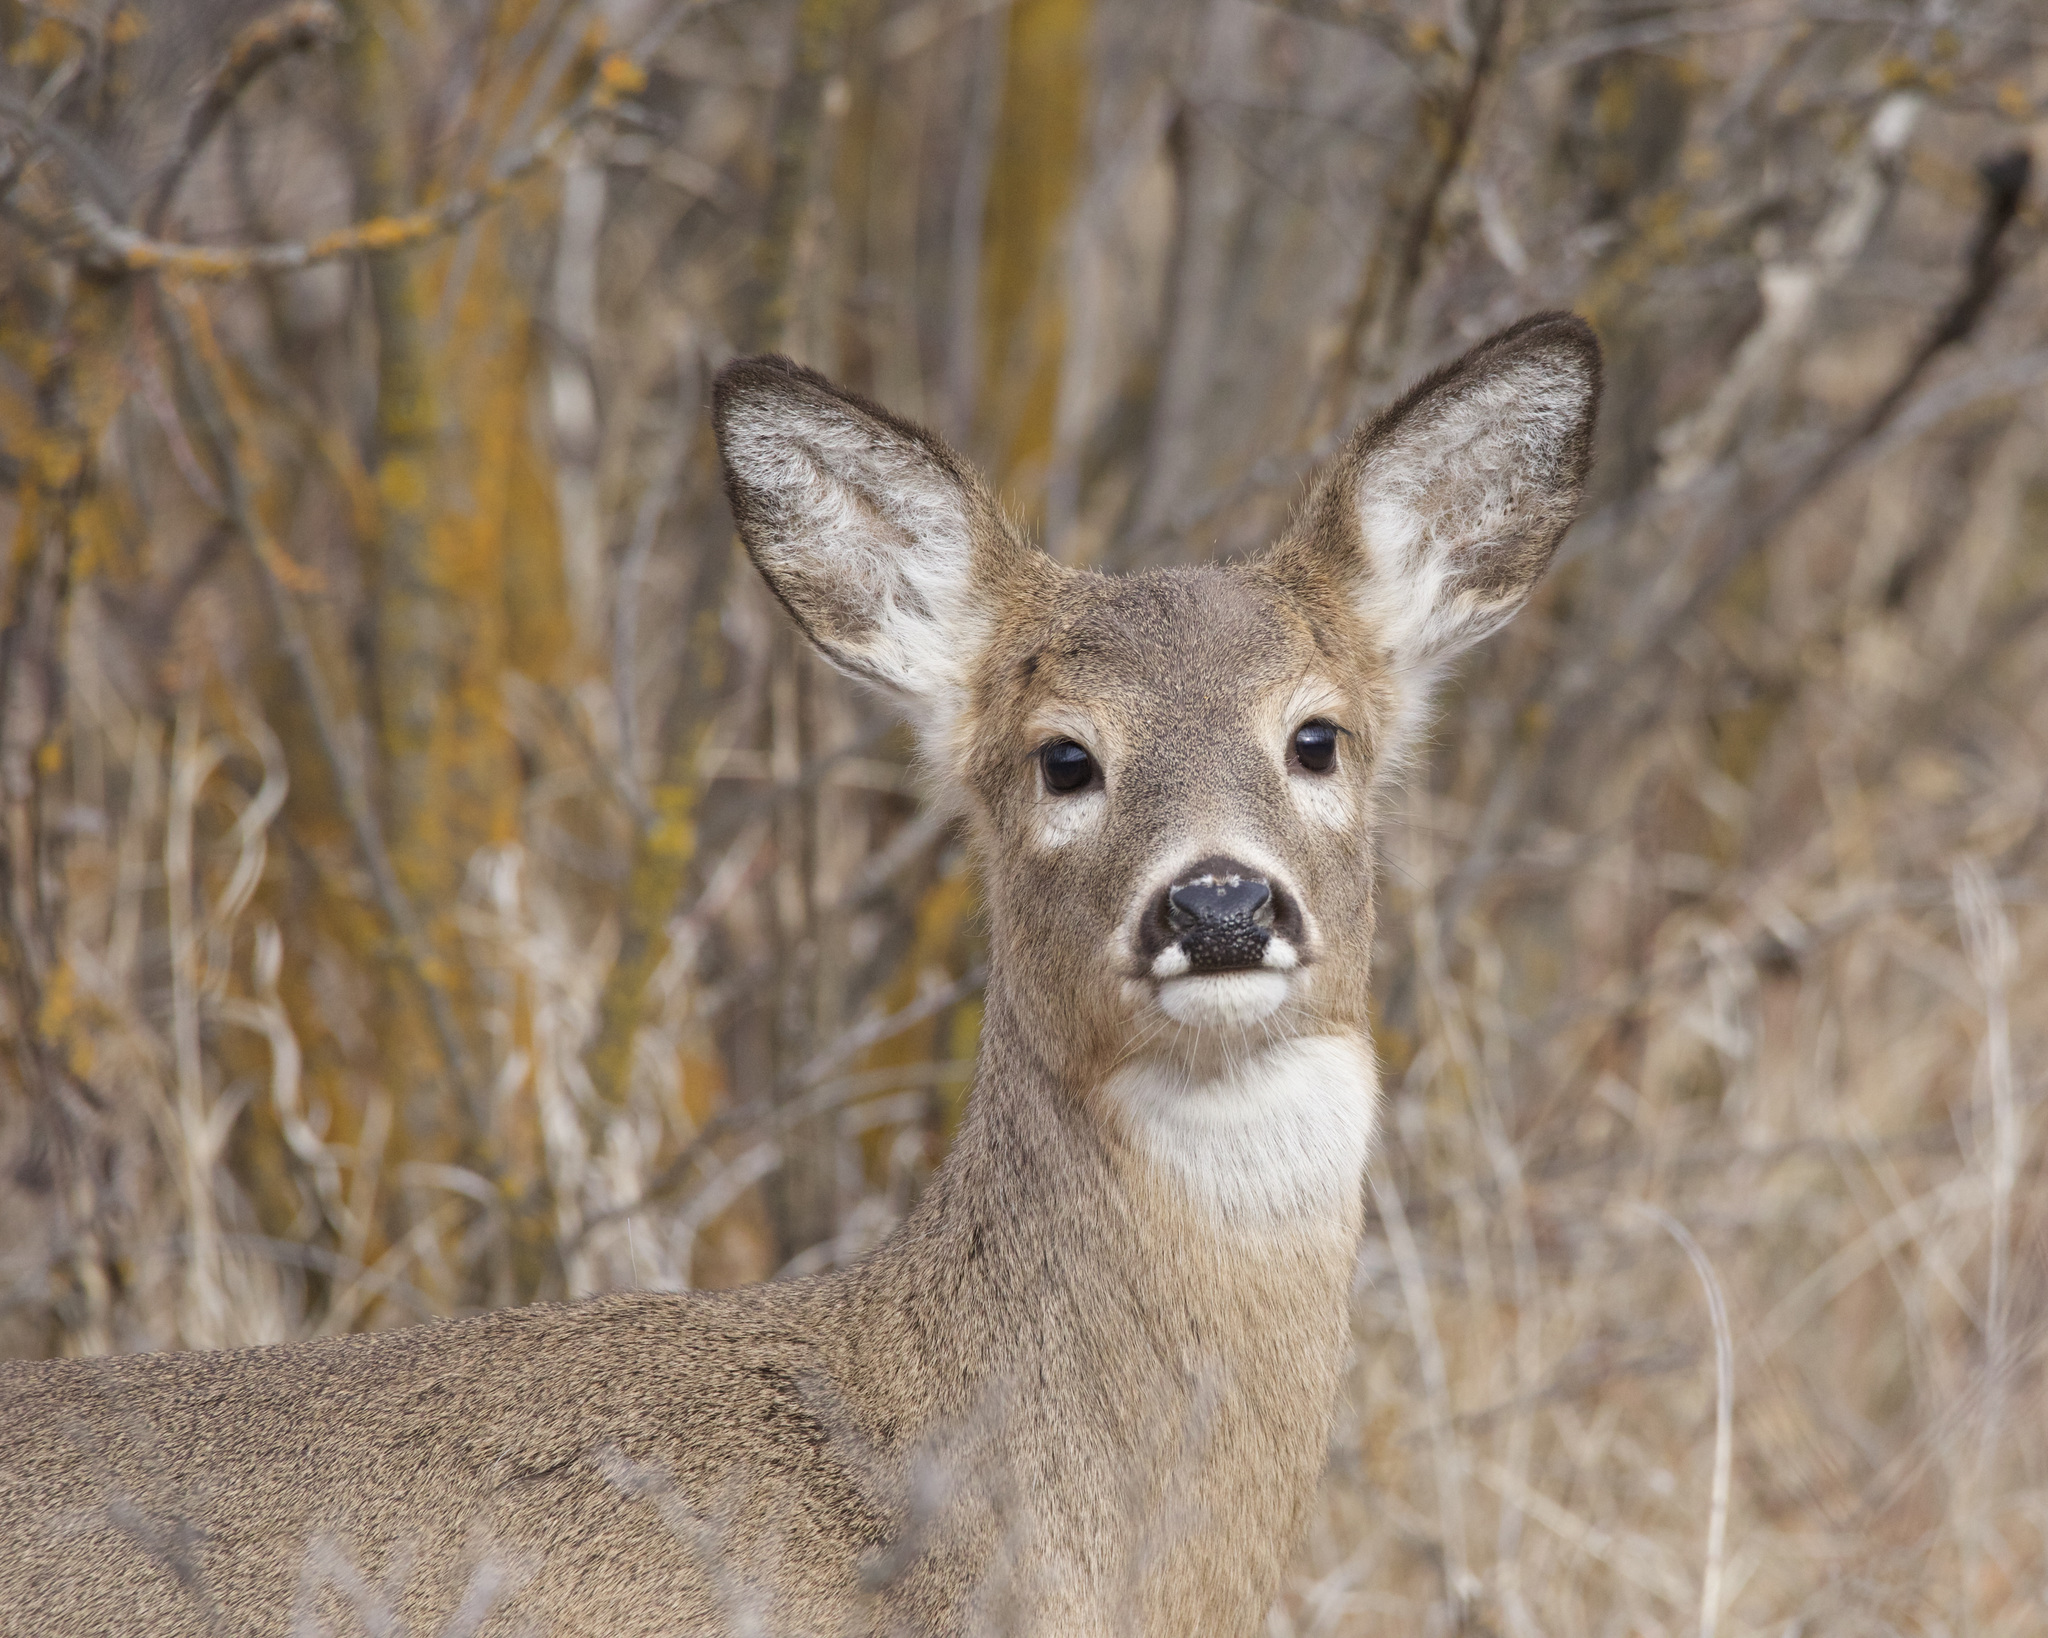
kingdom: Animalia
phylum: Chordata
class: Mammalia
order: Artiodactyla
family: Cervidae
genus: Odocoileus
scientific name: Odocoileus virginianus
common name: White-tailed deer
